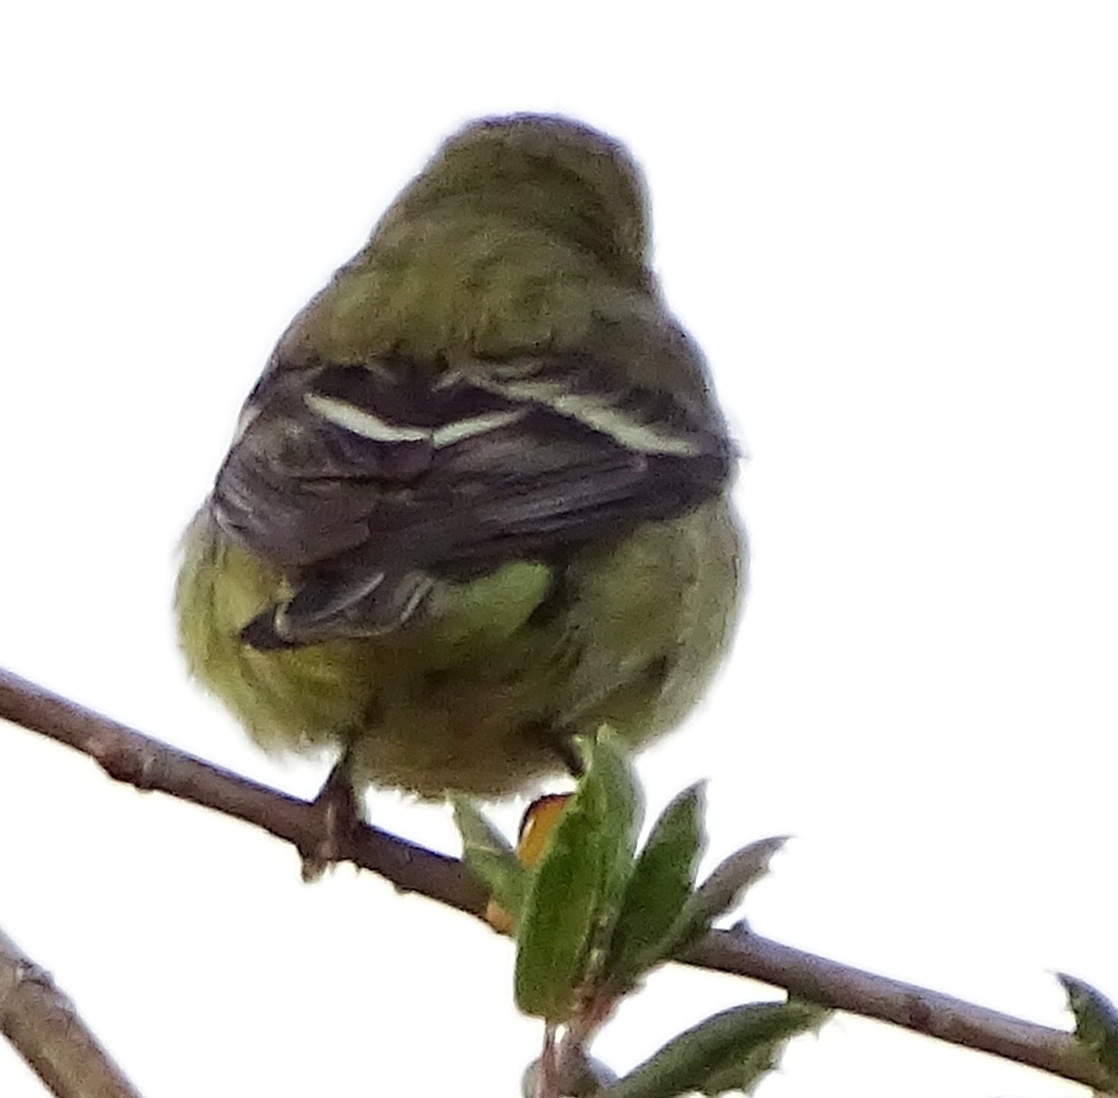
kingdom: Animalia
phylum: Chordata
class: Aves
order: Passeriformes
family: Fringillidae
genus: Spinus
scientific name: Spinus psaltria
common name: Lesser goldfinch
